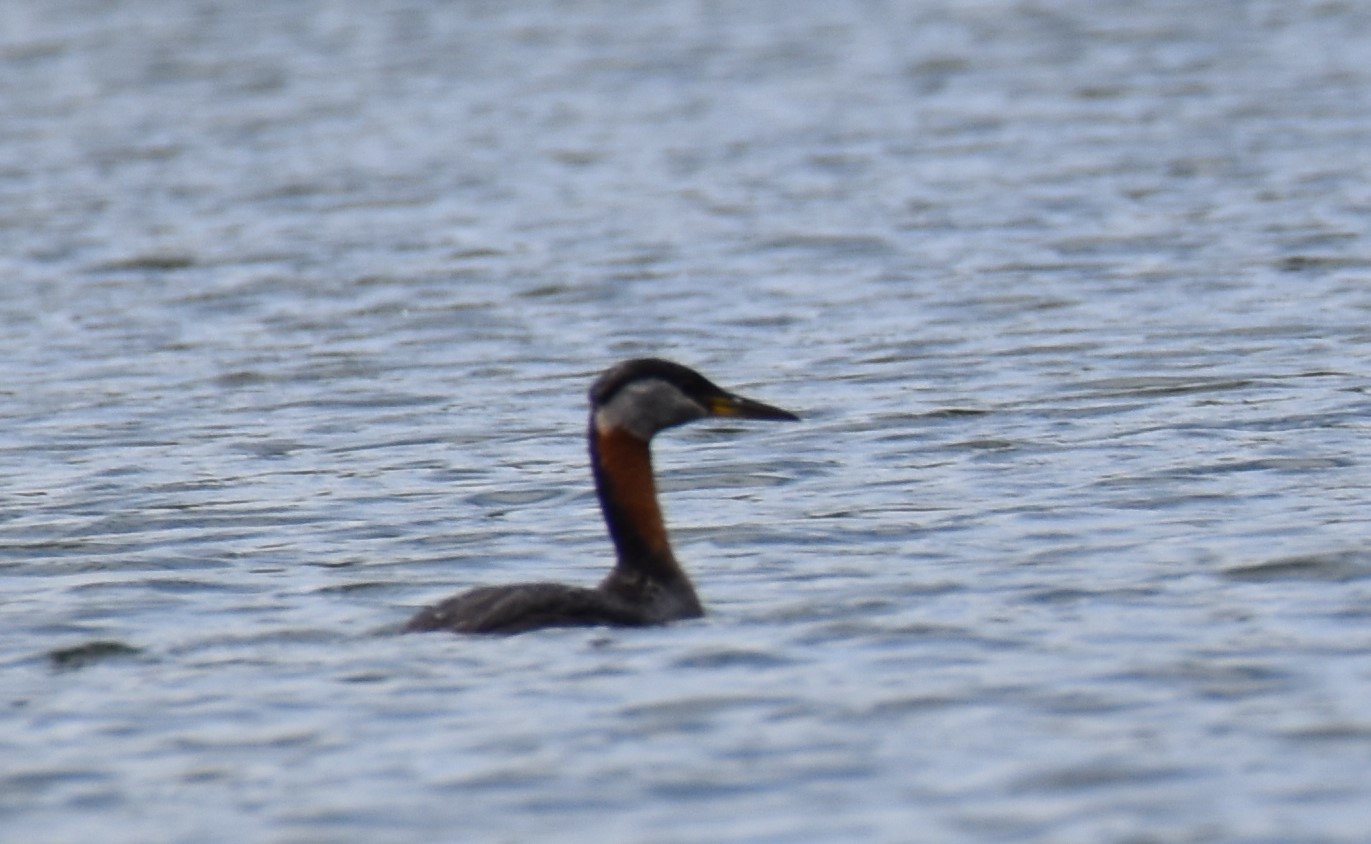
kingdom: Animalia
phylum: Chordata
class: Aves
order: Podicipediformes
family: Podicipedidae
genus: Podiceps
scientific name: Podiceps grisegena
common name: Red-necked grebe
